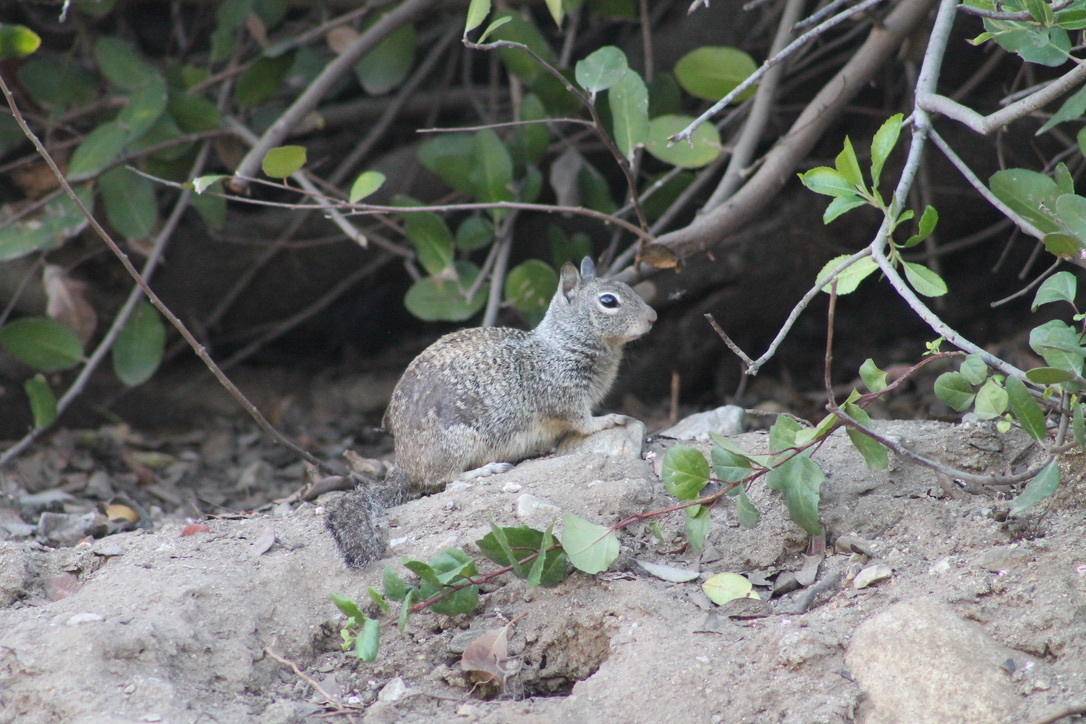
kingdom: Animalia
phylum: Chordata
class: Mammalia
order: Rodentia
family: Sciuridae
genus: Otospermophilus
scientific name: Otospermophilus beecheyi
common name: California ground squirrel
